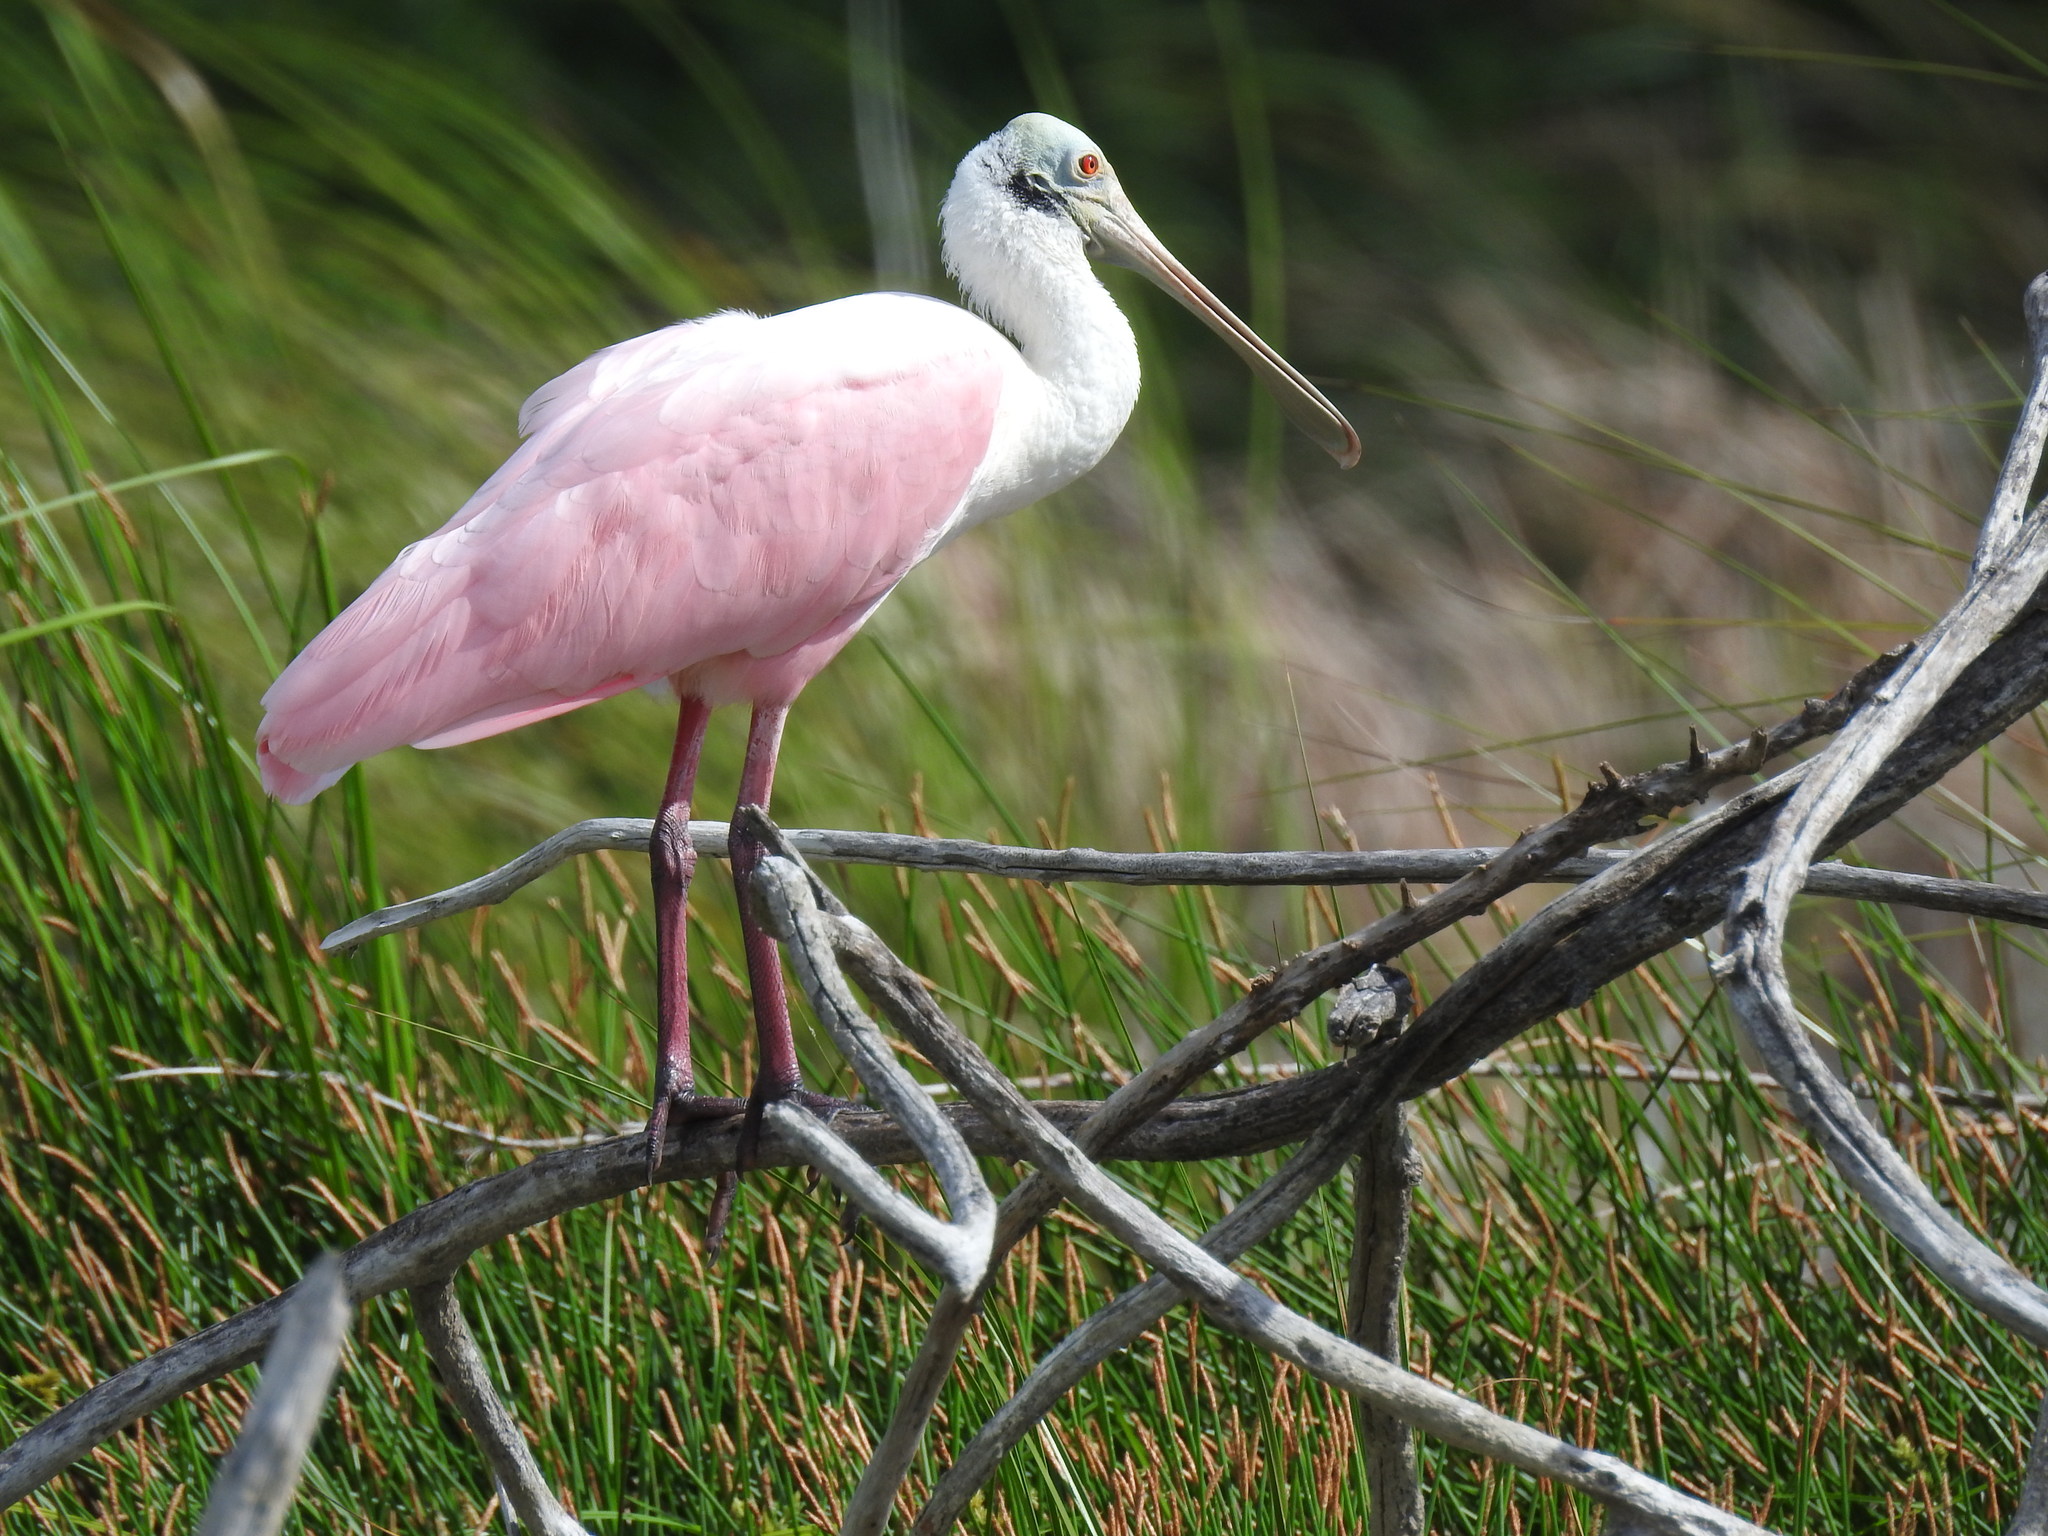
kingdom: Animalia
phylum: Chordata
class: Aves
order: Pelecaniformes
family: Threskiornithidae
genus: Platalea
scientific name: Platalea ajaja
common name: Roseate spoonbill
